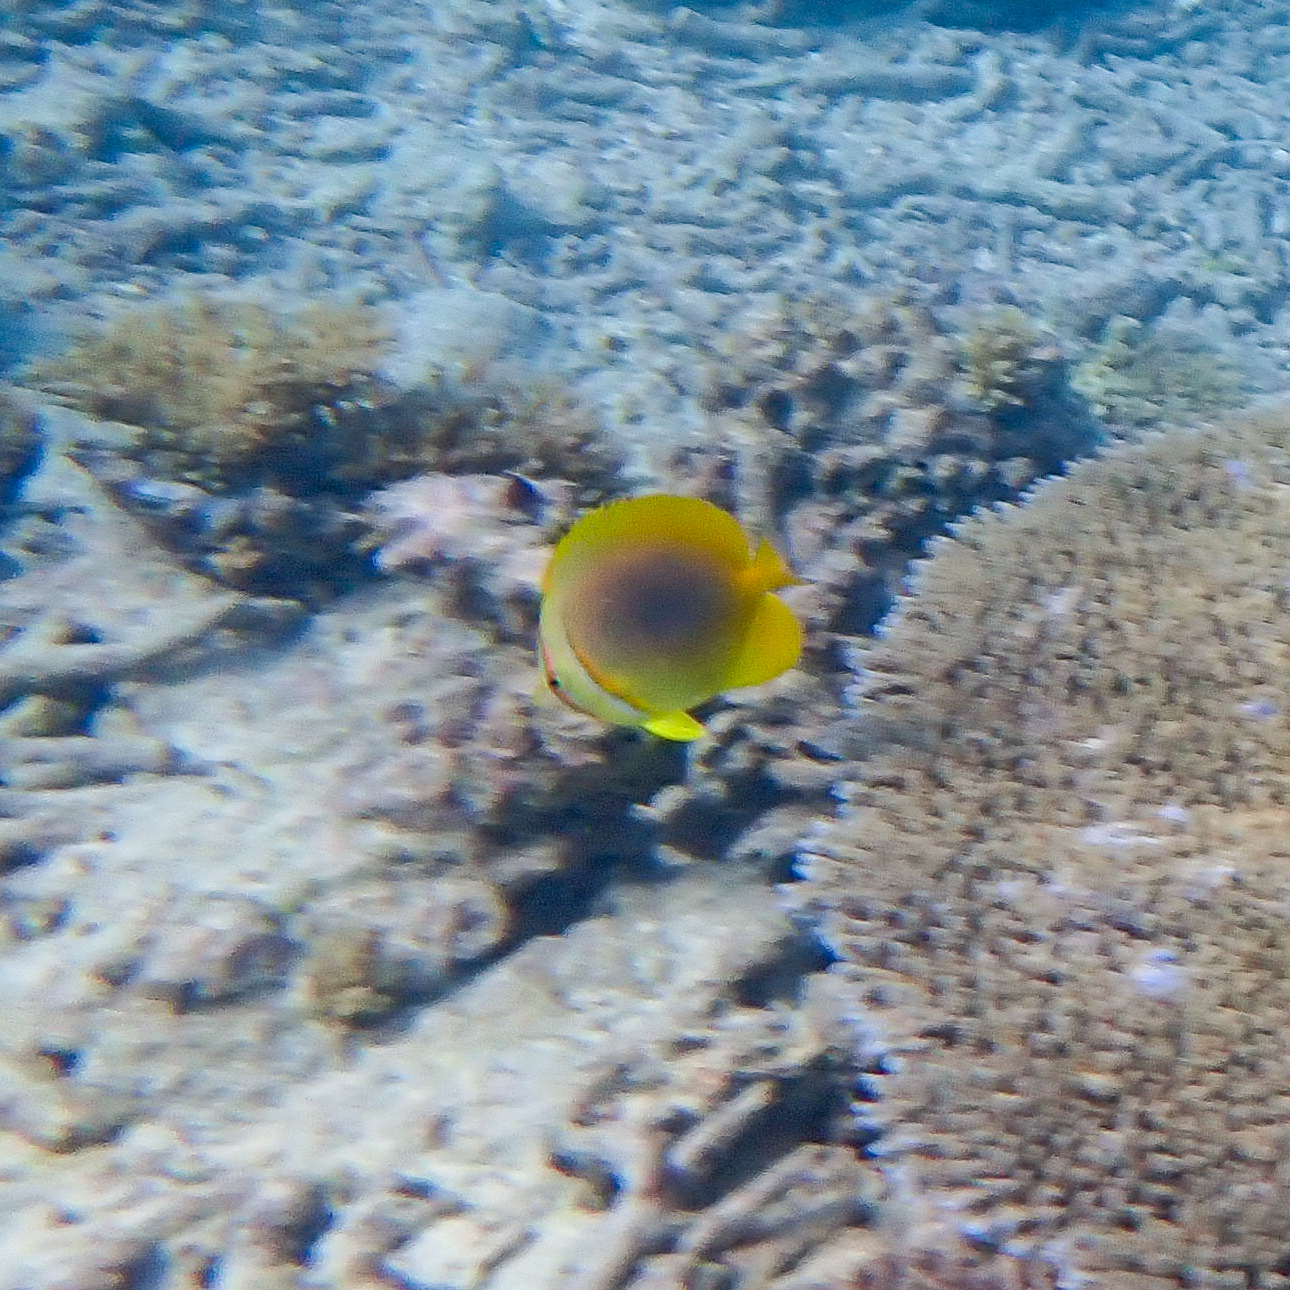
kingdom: Animalia
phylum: Chordata
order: Perciformes
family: Chaetodontidae
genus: Chaetodon
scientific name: Chaetodon aureofasciatus
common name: Golden butterflyfish
